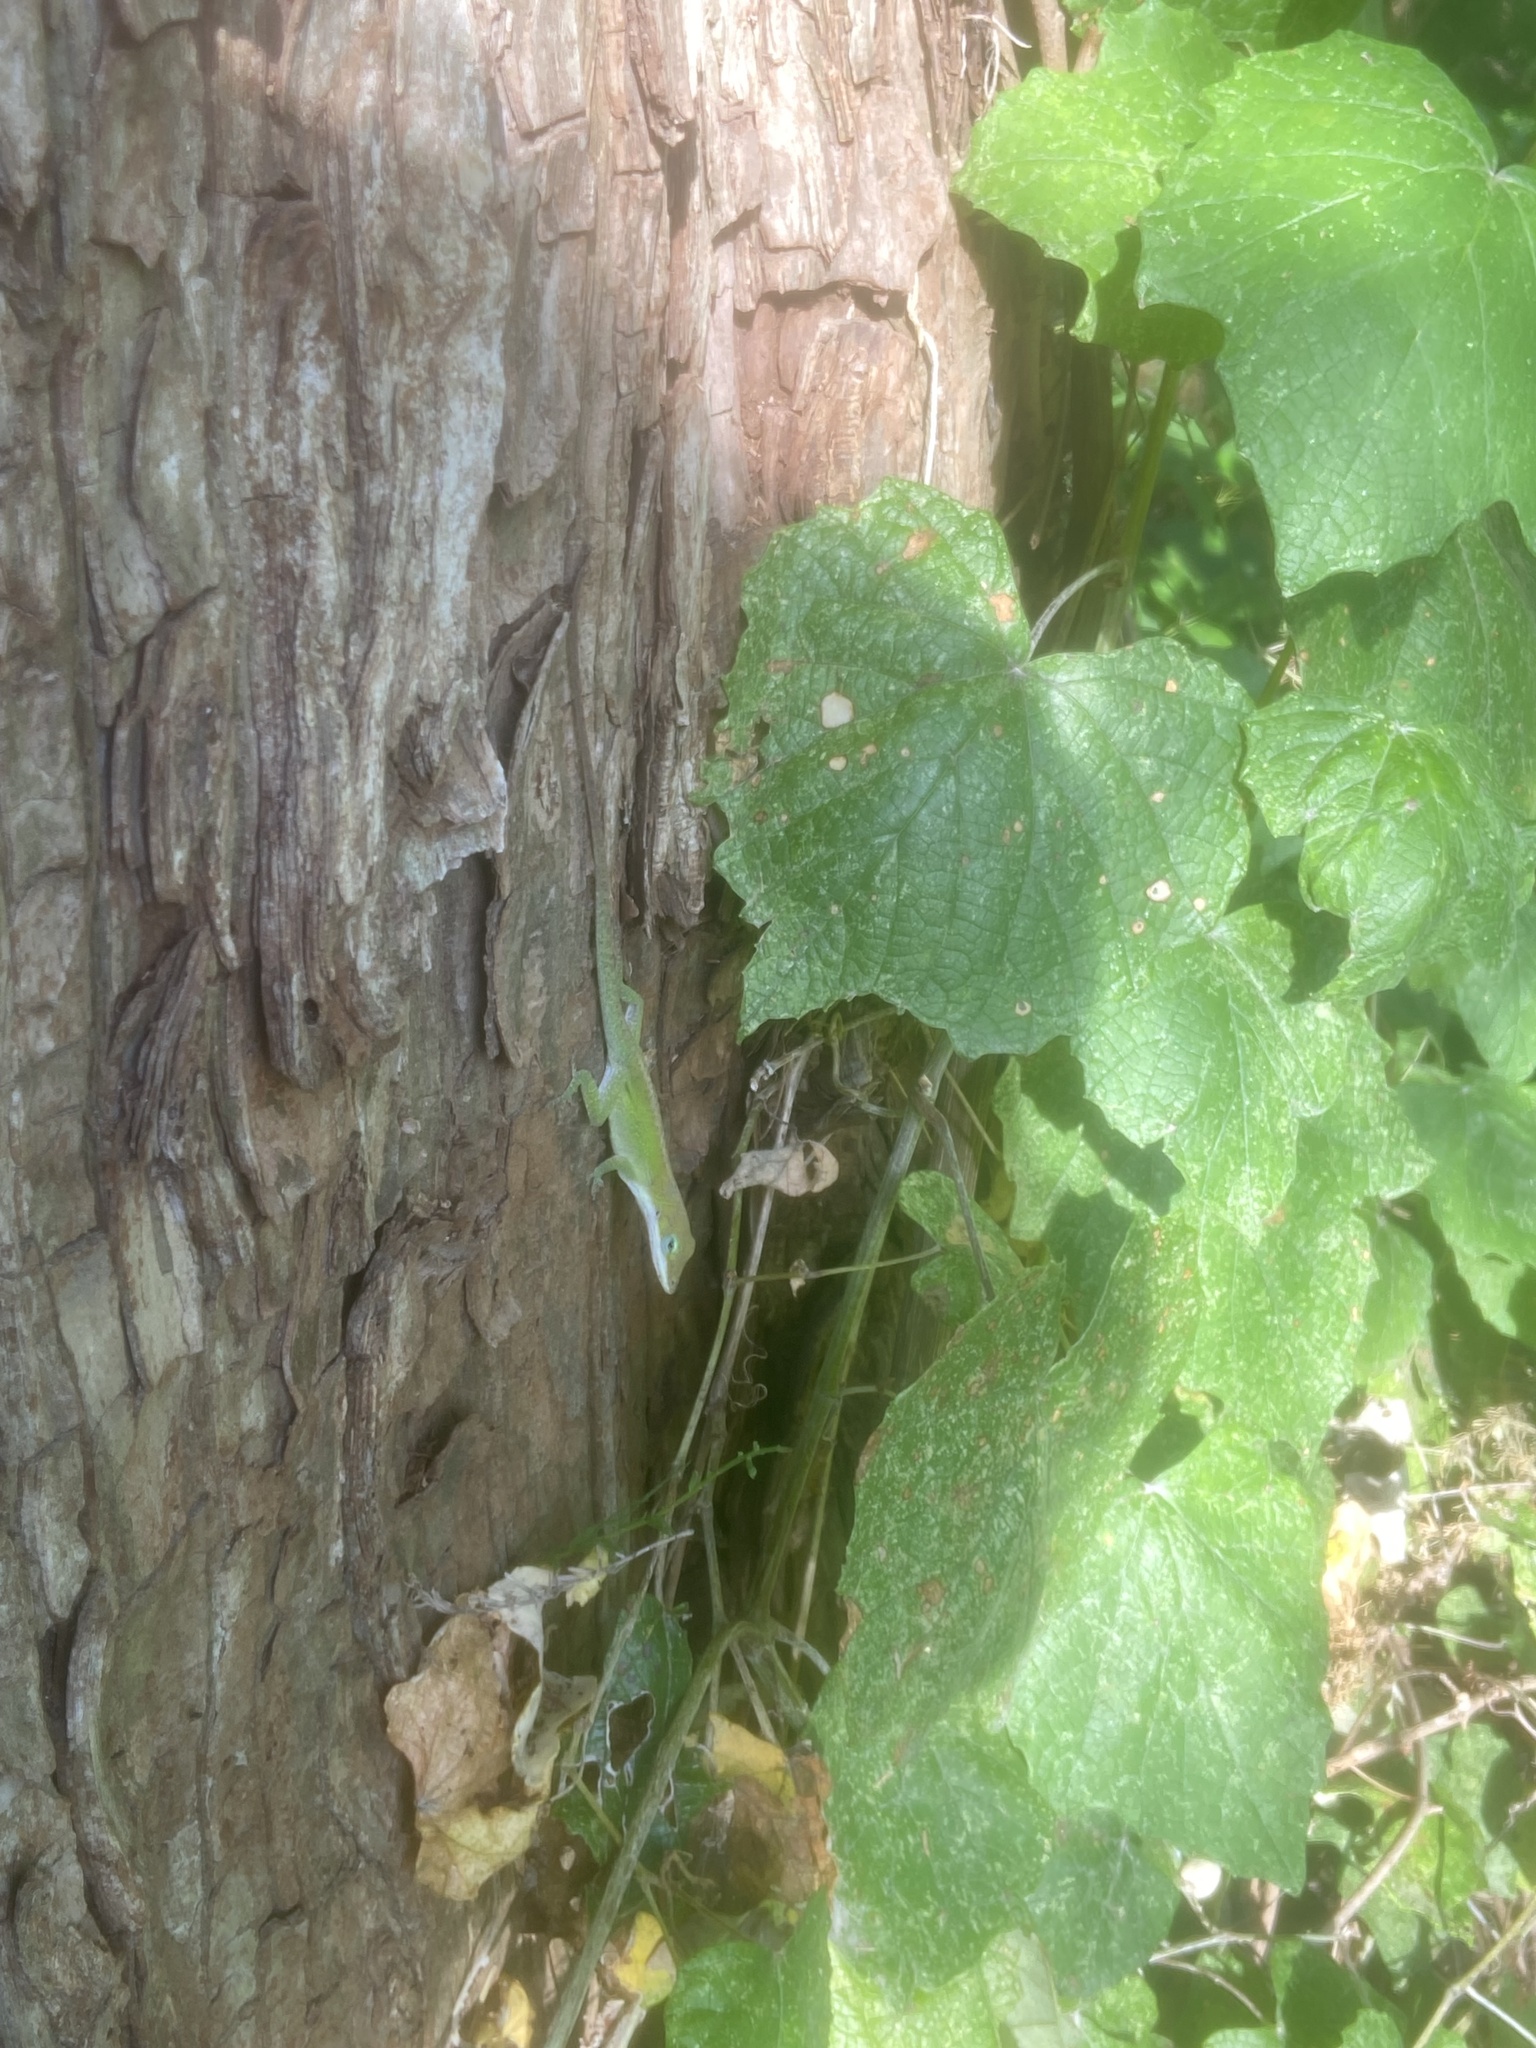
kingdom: Animalia
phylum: Chordata
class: Squamata
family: Dactyloidae
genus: Anolis
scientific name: Anolis carolinensis
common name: Green anole
